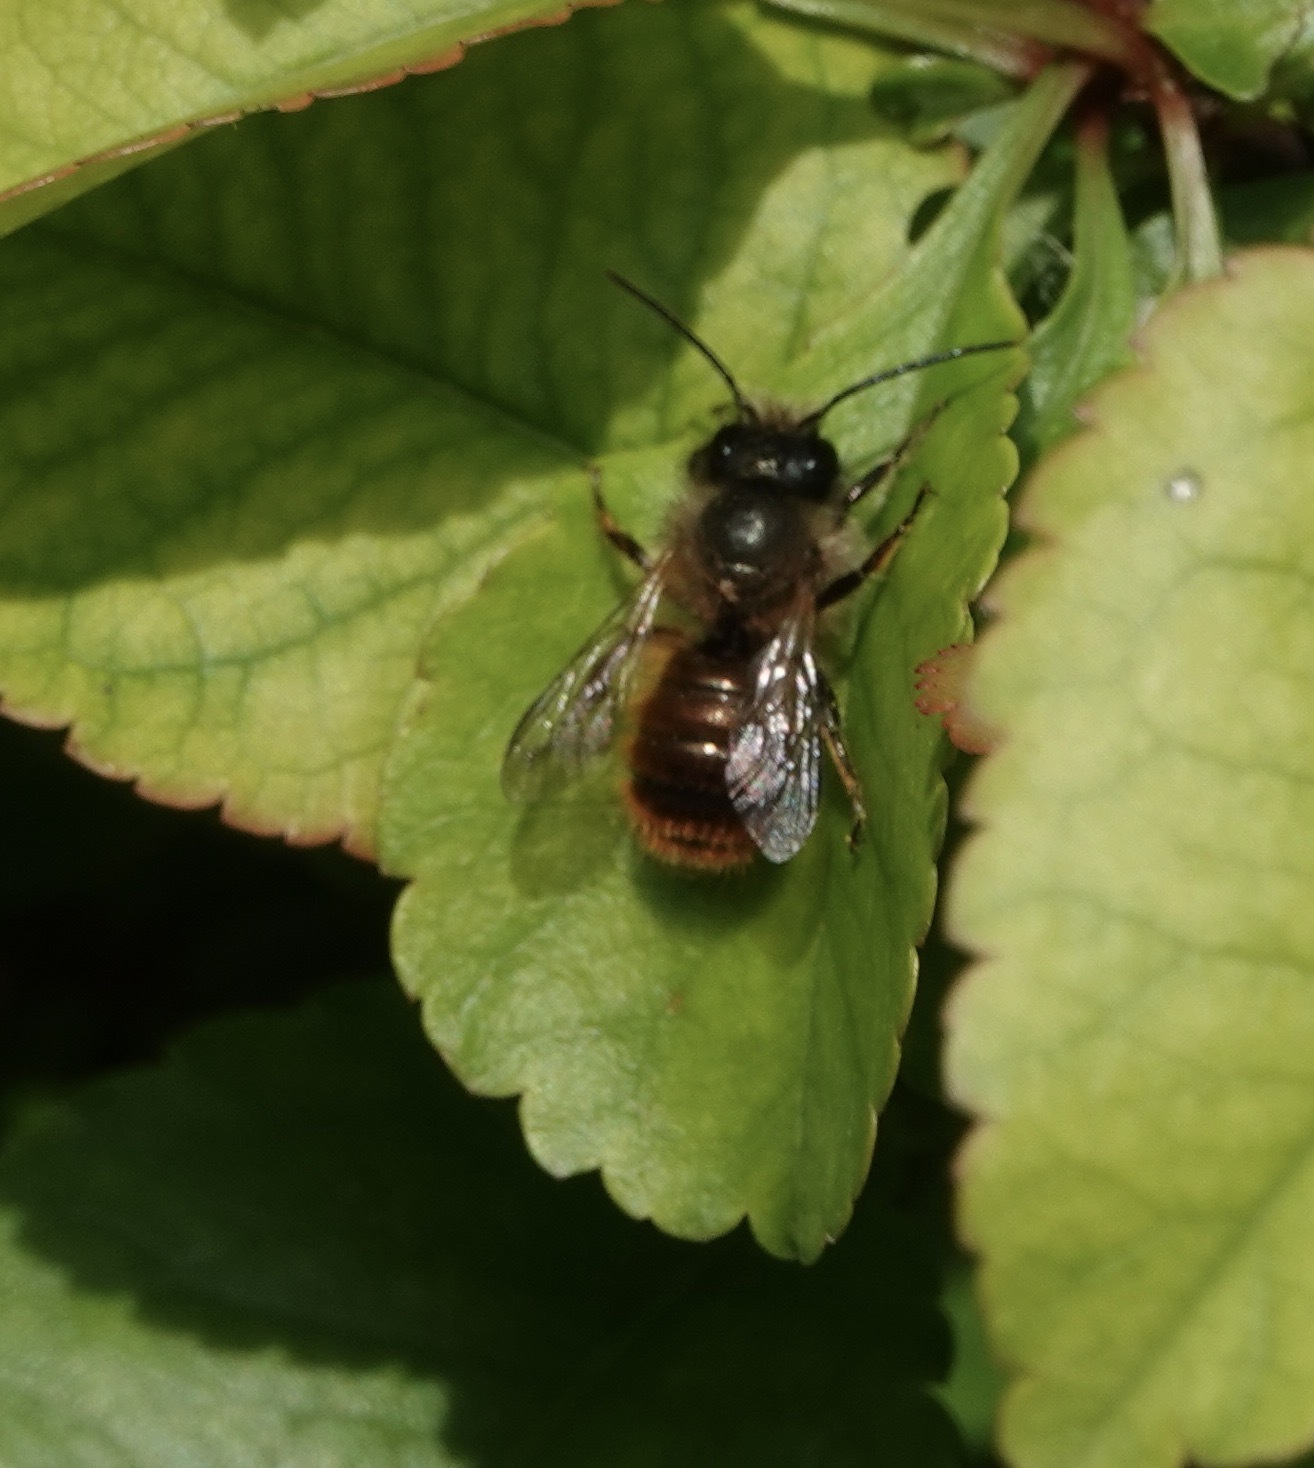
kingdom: Animalia
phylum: Arthropoda
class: Insecta
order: Hymenoptera
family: Megachilidae
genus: Osmia
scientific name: Osmia bicornis
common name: Red mason bee
